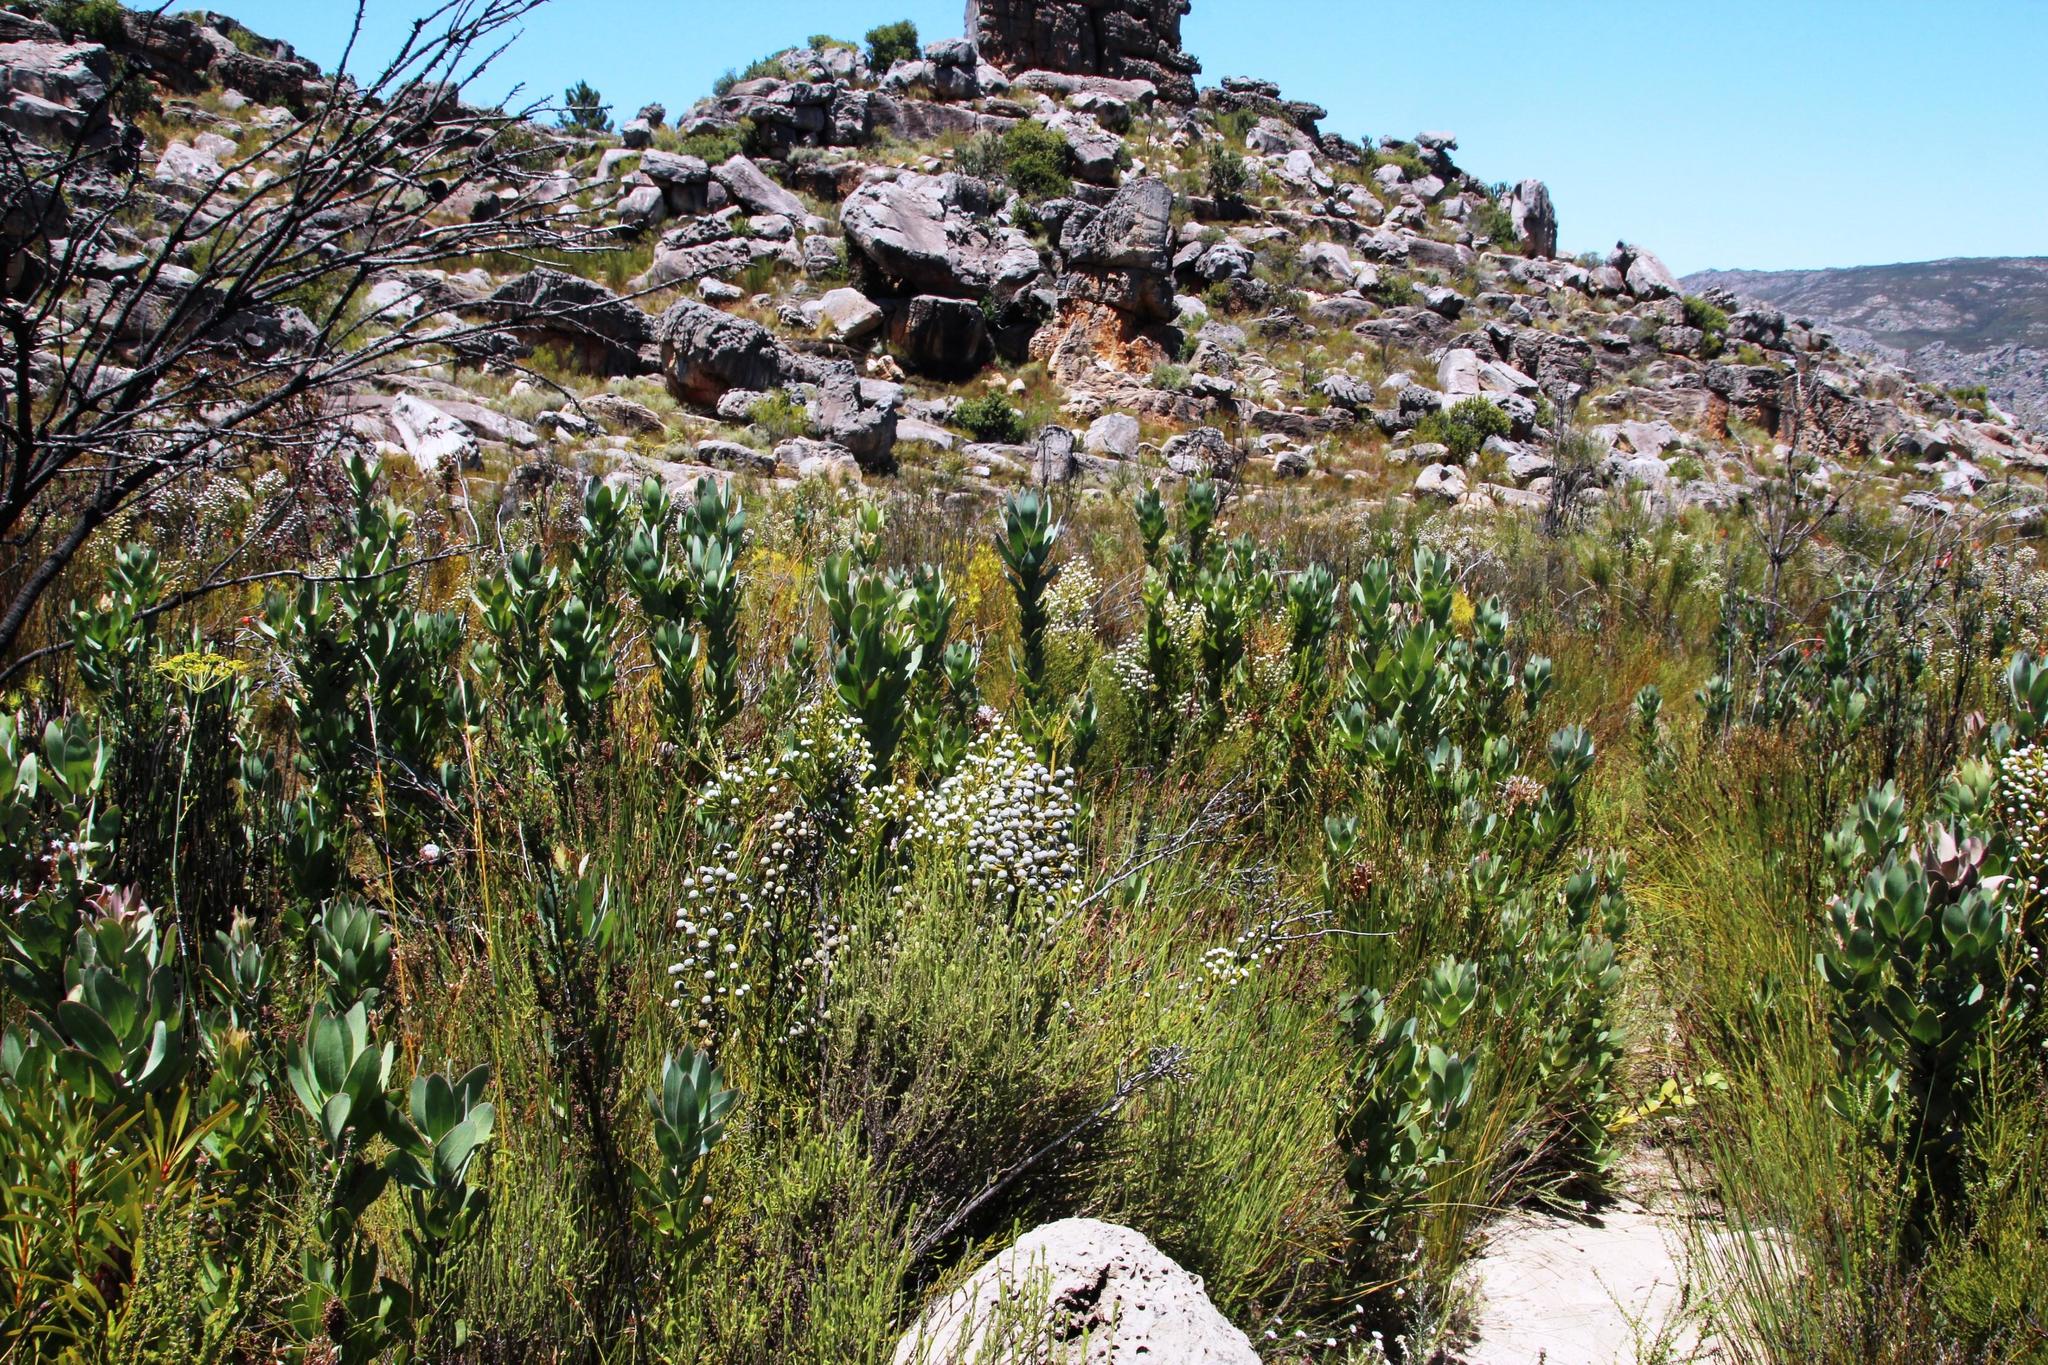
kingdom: Plantae
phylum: Tracheophyta
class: Magnoliopsida
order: Proteales
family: Proteaceae
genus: Protea
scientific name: Protea laurifolia
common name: Grey-leaf sugarbsh
